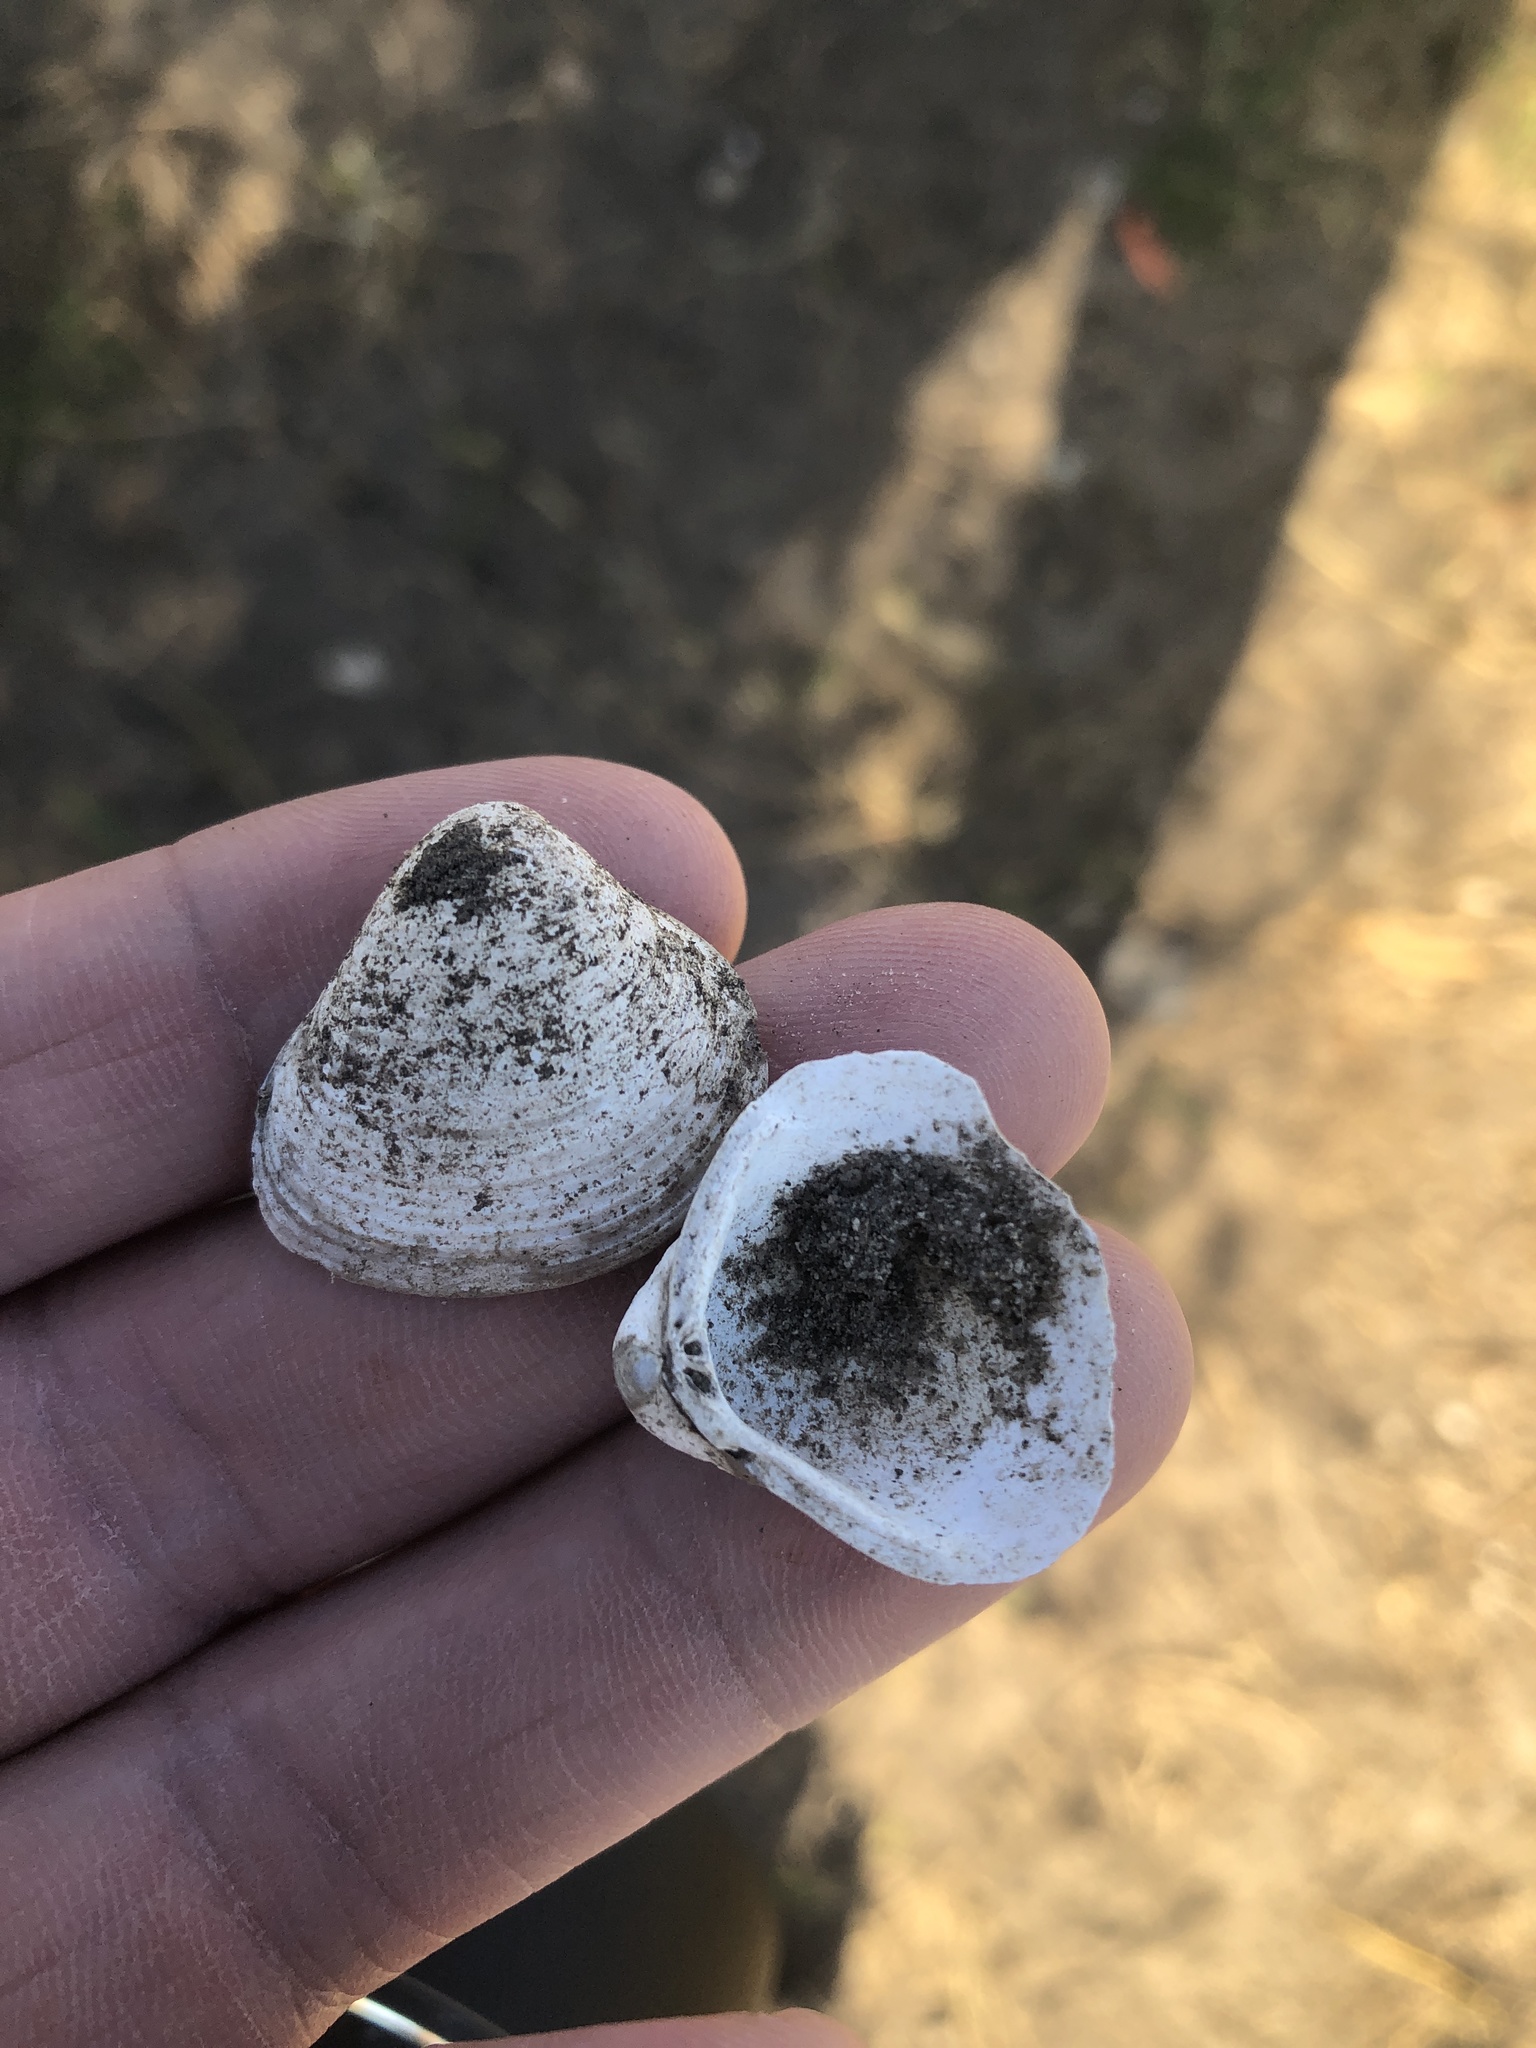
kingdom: Animalia
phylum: Mollusca
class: Bivalvia
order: Venerida
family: Cyrenidae
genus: Corbicula
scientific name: Corbicula fluminea
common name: Asian clam
